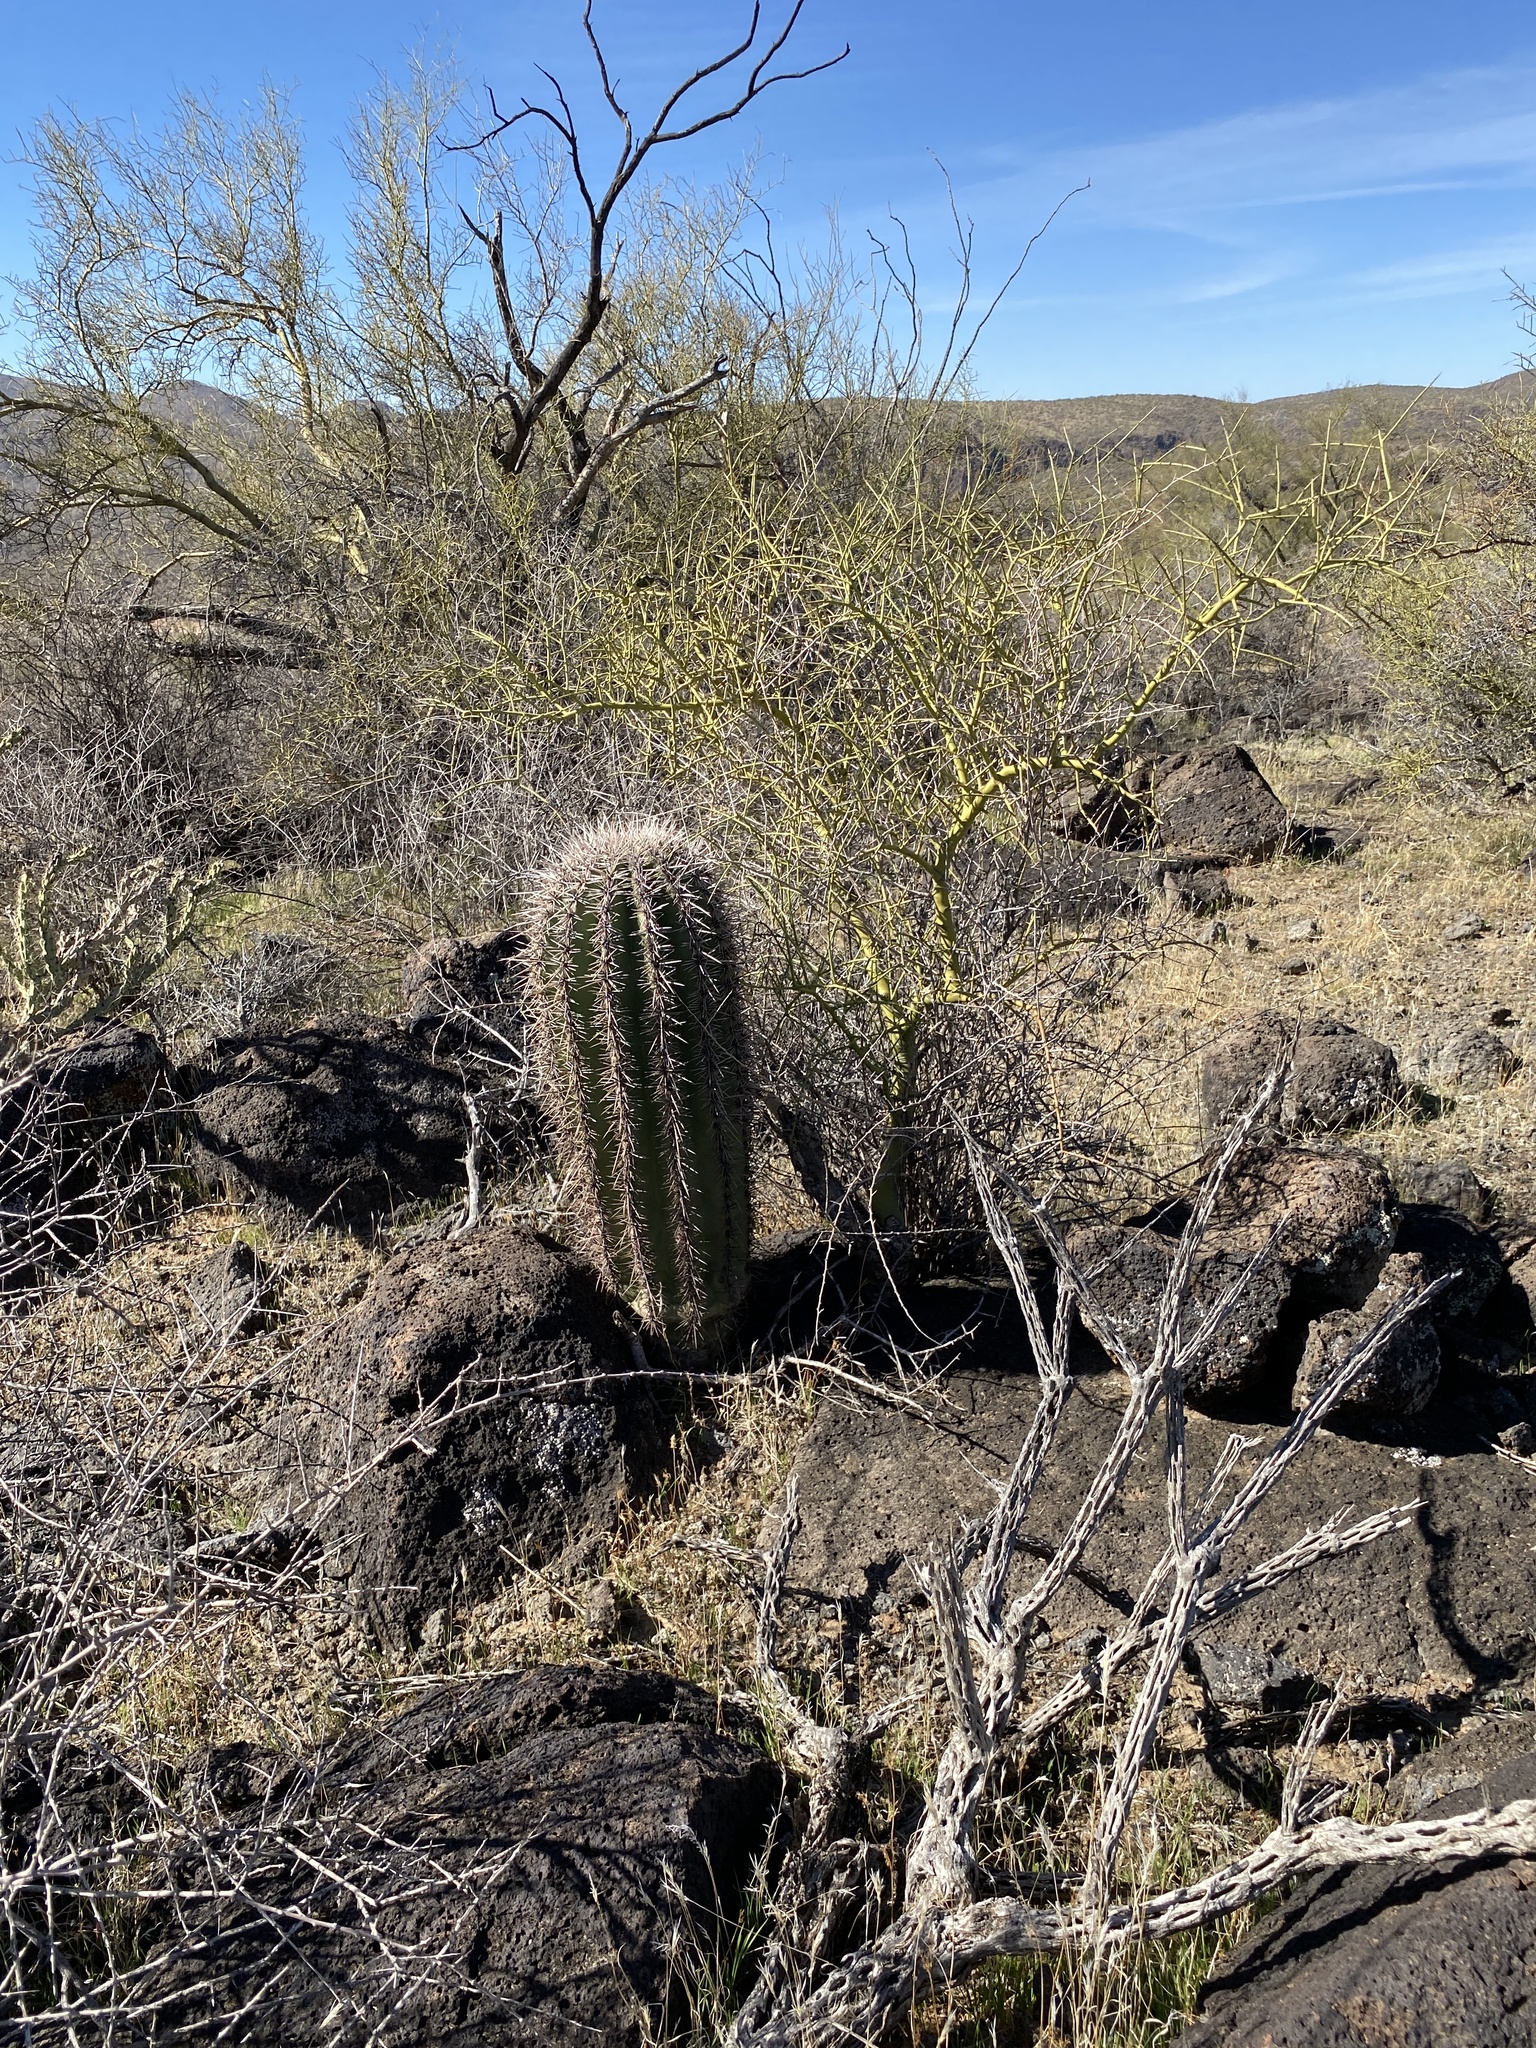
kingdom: Plantae
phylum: Tracheophyta
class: Magnoliopsida
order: Caryophyllales
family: Cactaceae
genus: Carnegiea
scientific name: Carnegiea gigantea
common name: Saguaro
